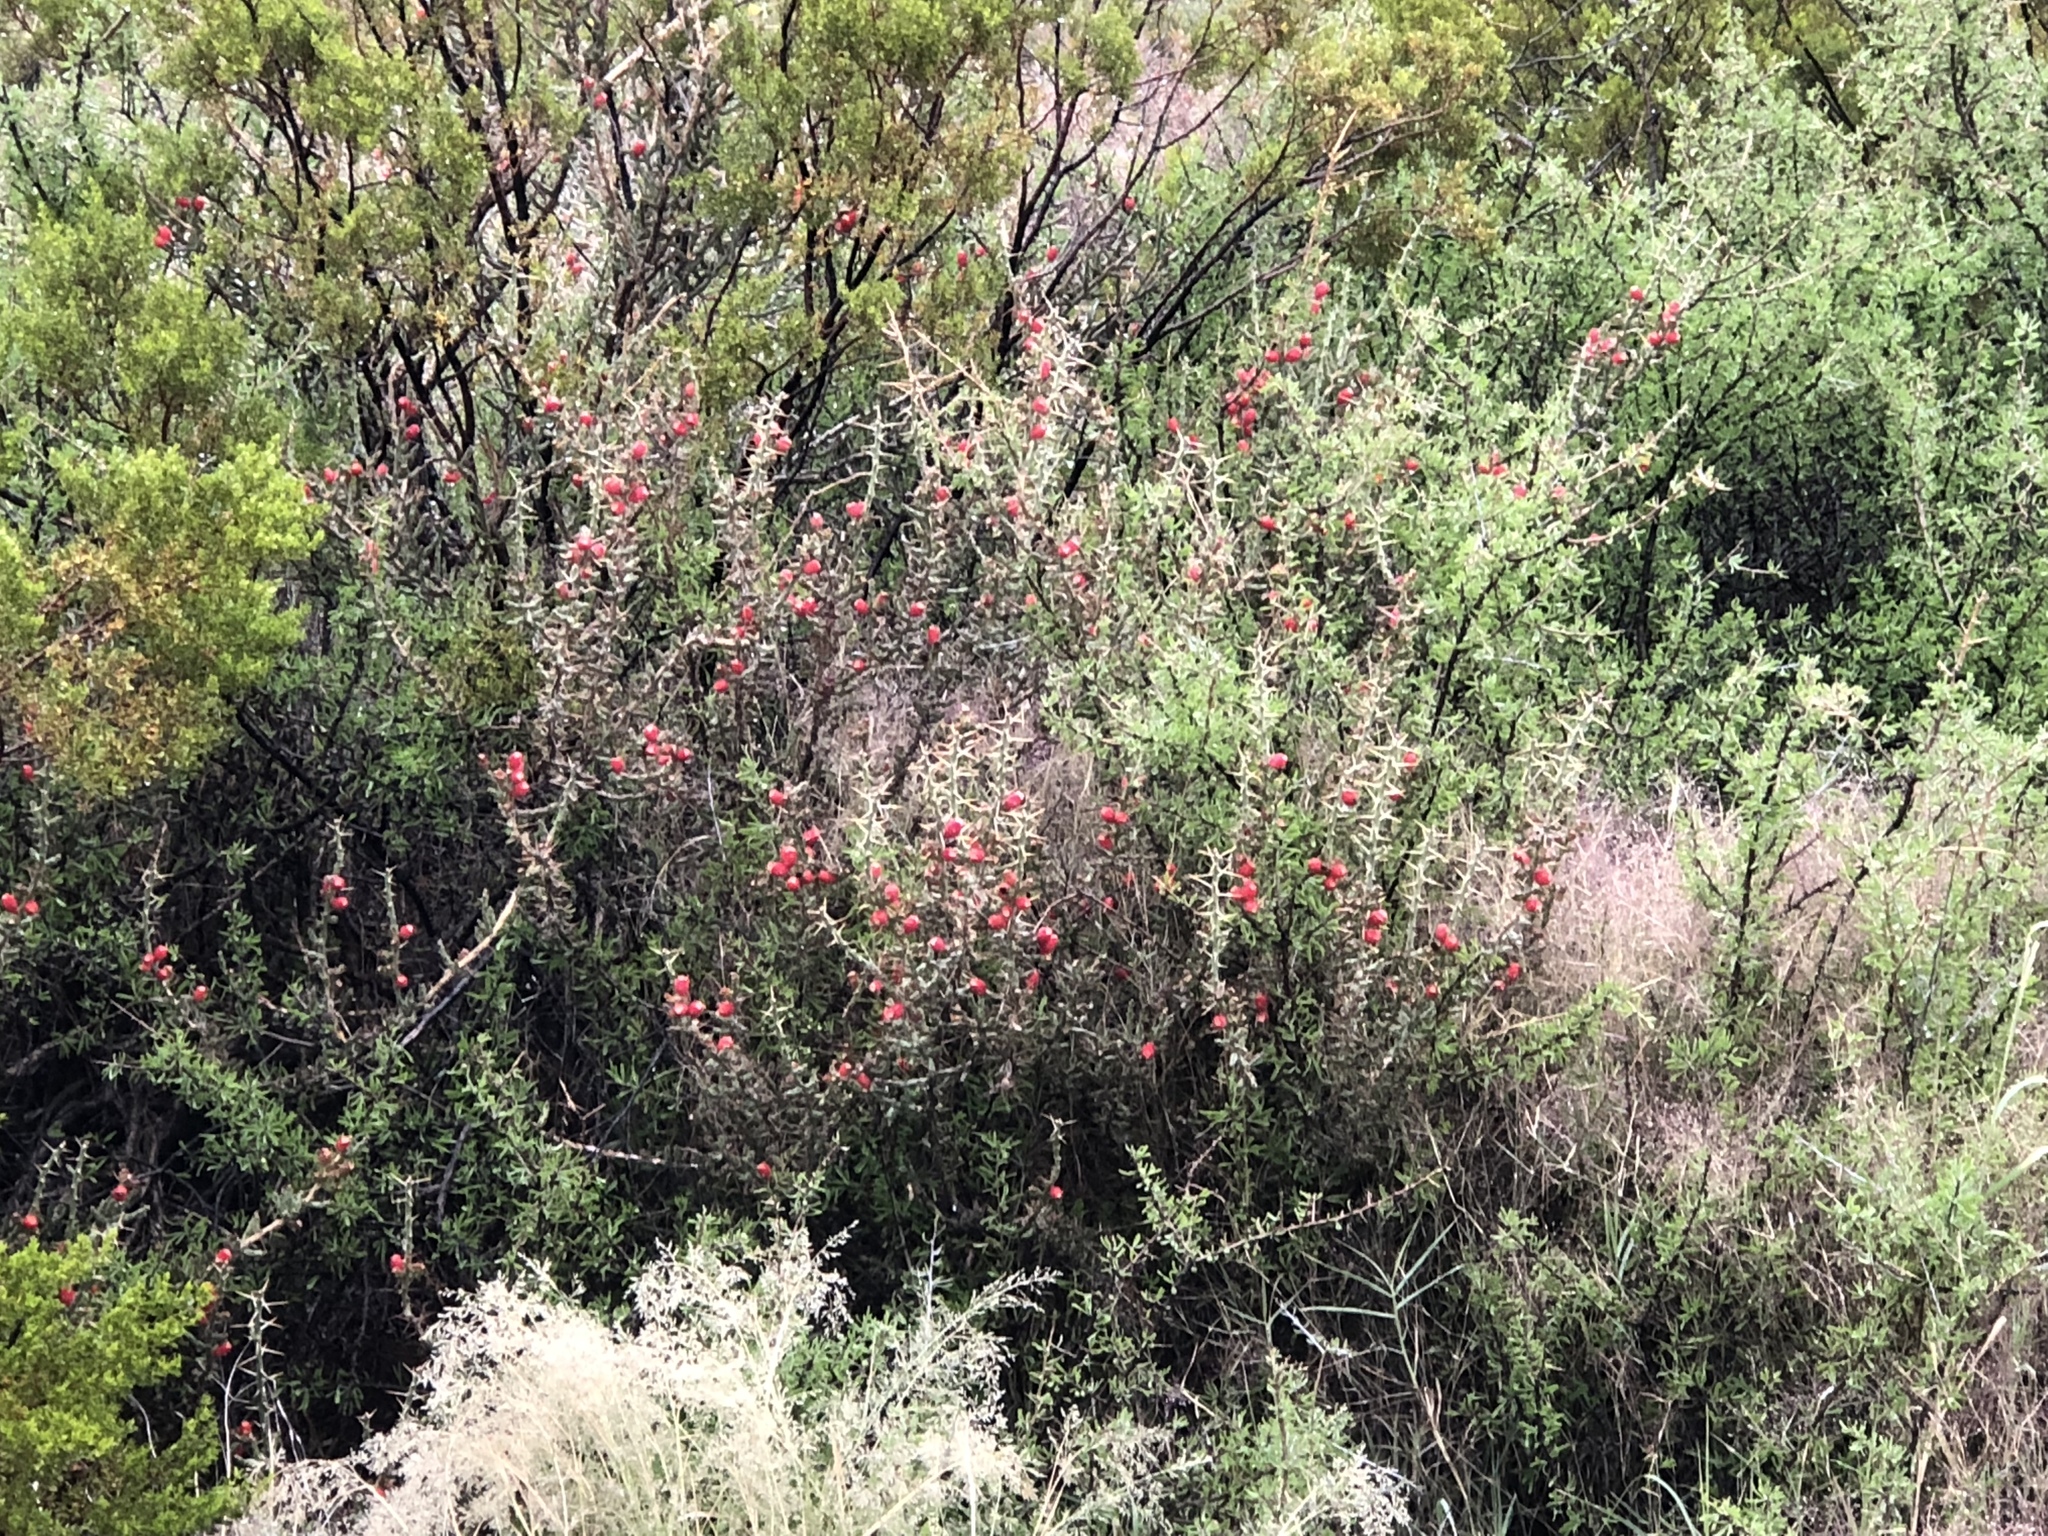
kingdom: Plantae
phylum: Tracheophyta
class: Magnoliopsida
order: Caryophyllales
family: Cactaceae
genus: Cylindropuntia
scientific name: Cylindropuntia leptocaulis
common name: Christmas cactus
